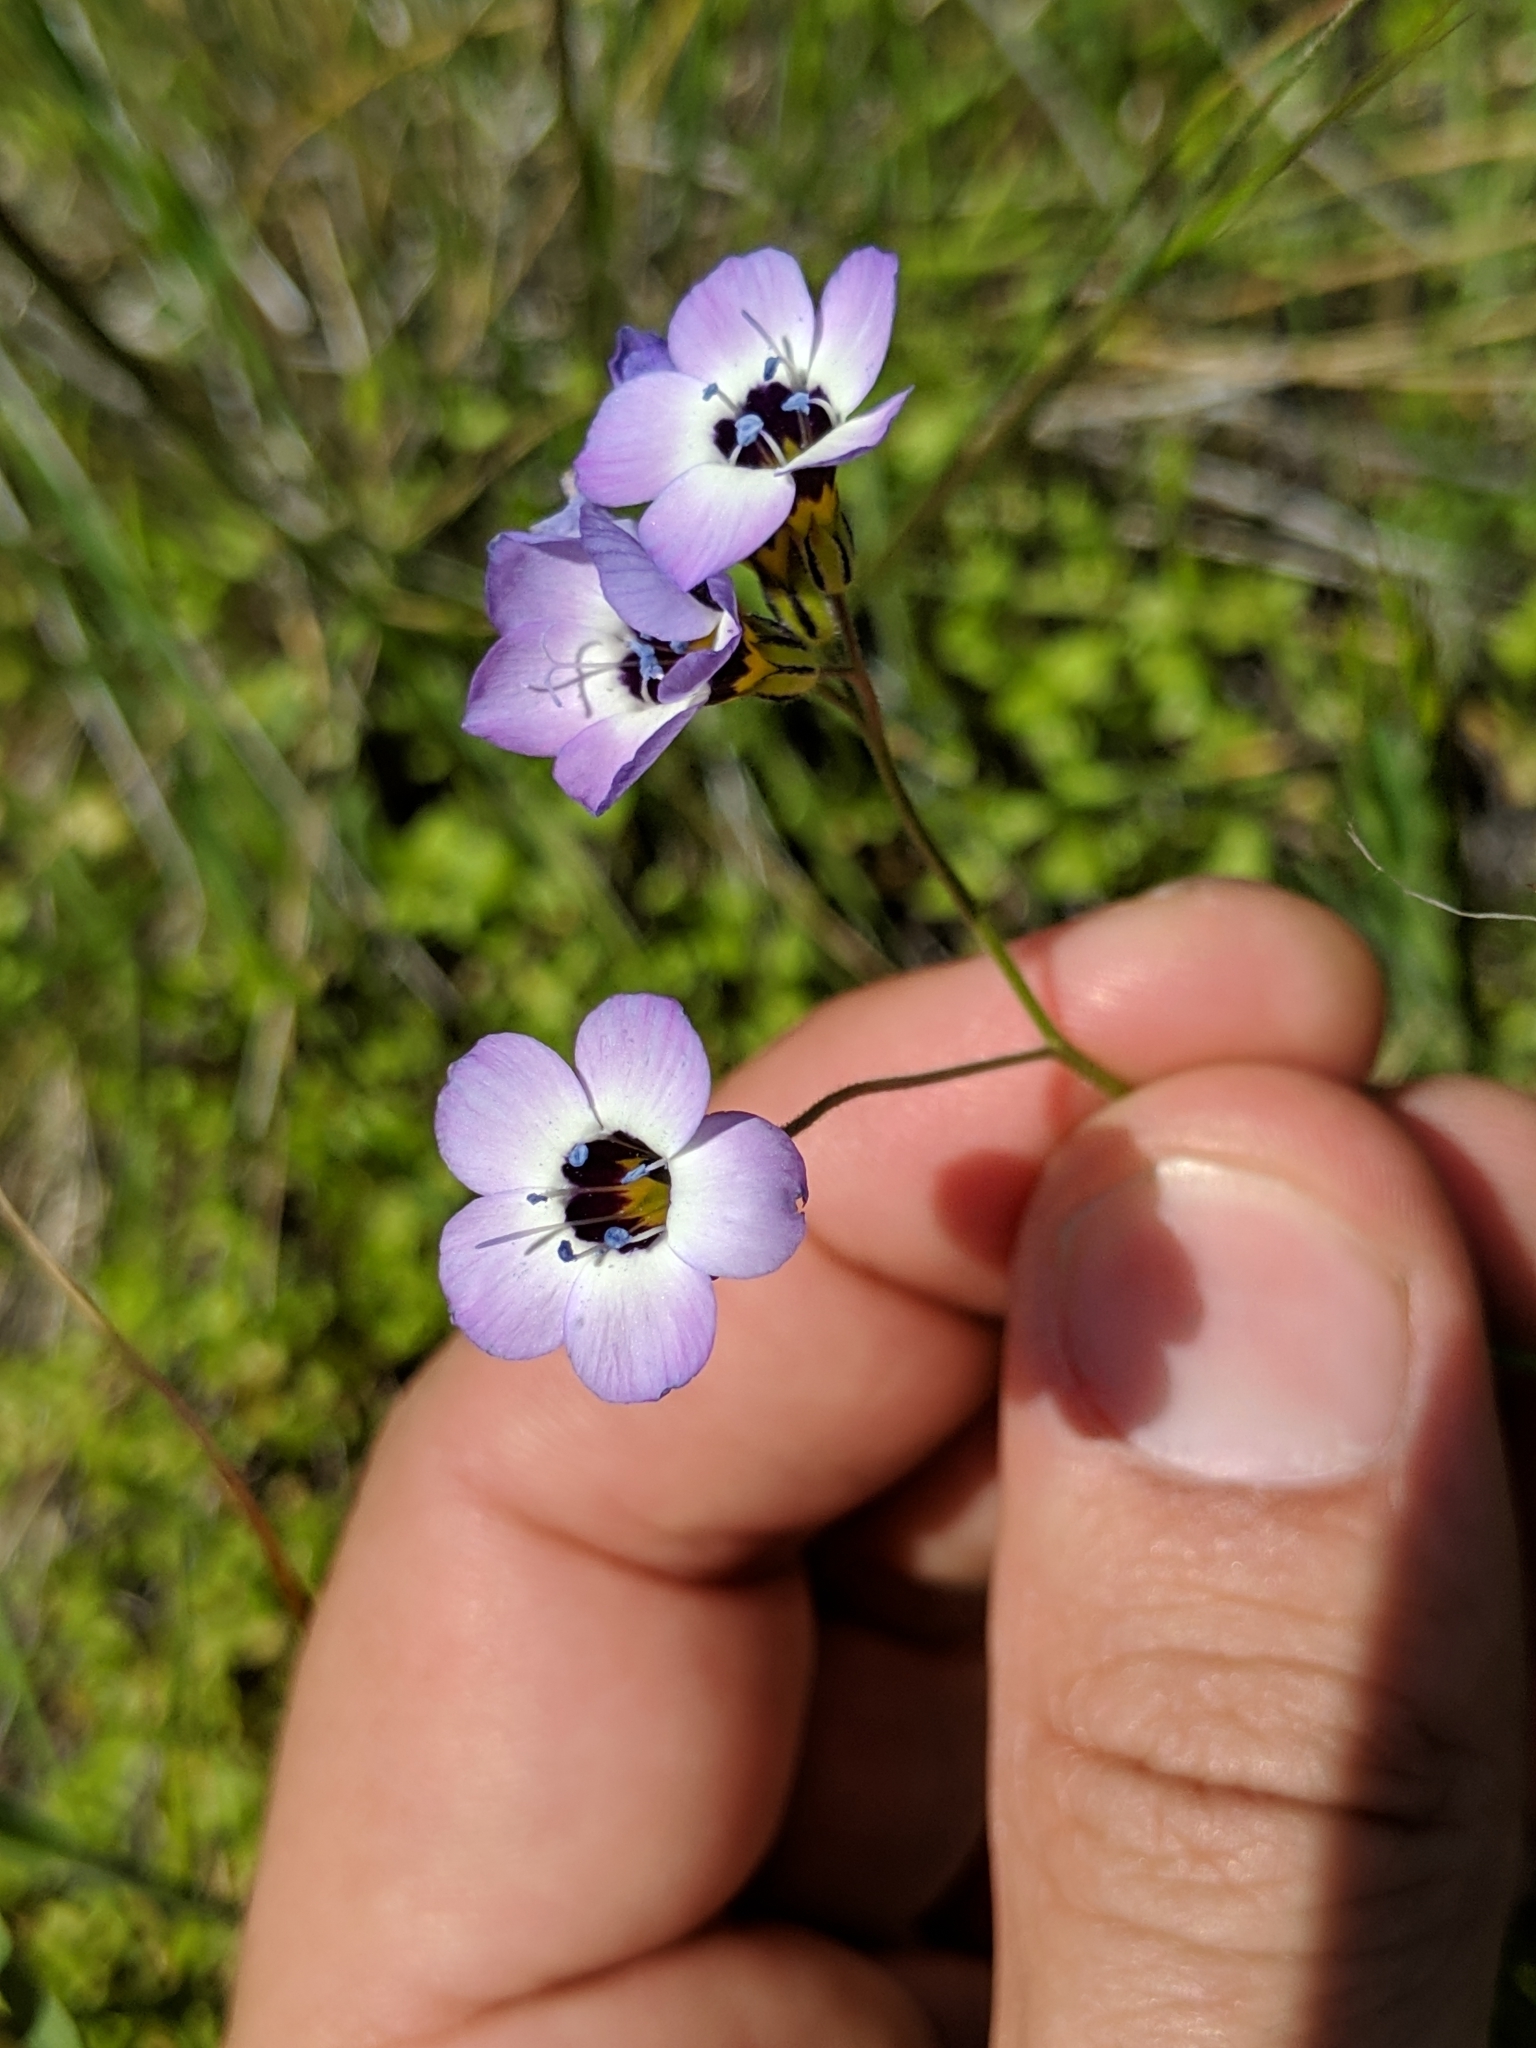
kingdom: Plantae
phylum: Tracheophyta
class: Magnoliopsida
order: Ericales
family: Polemoniaceae
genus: Gilia
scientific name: Gilia tricolor
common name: Bird's-eyes
